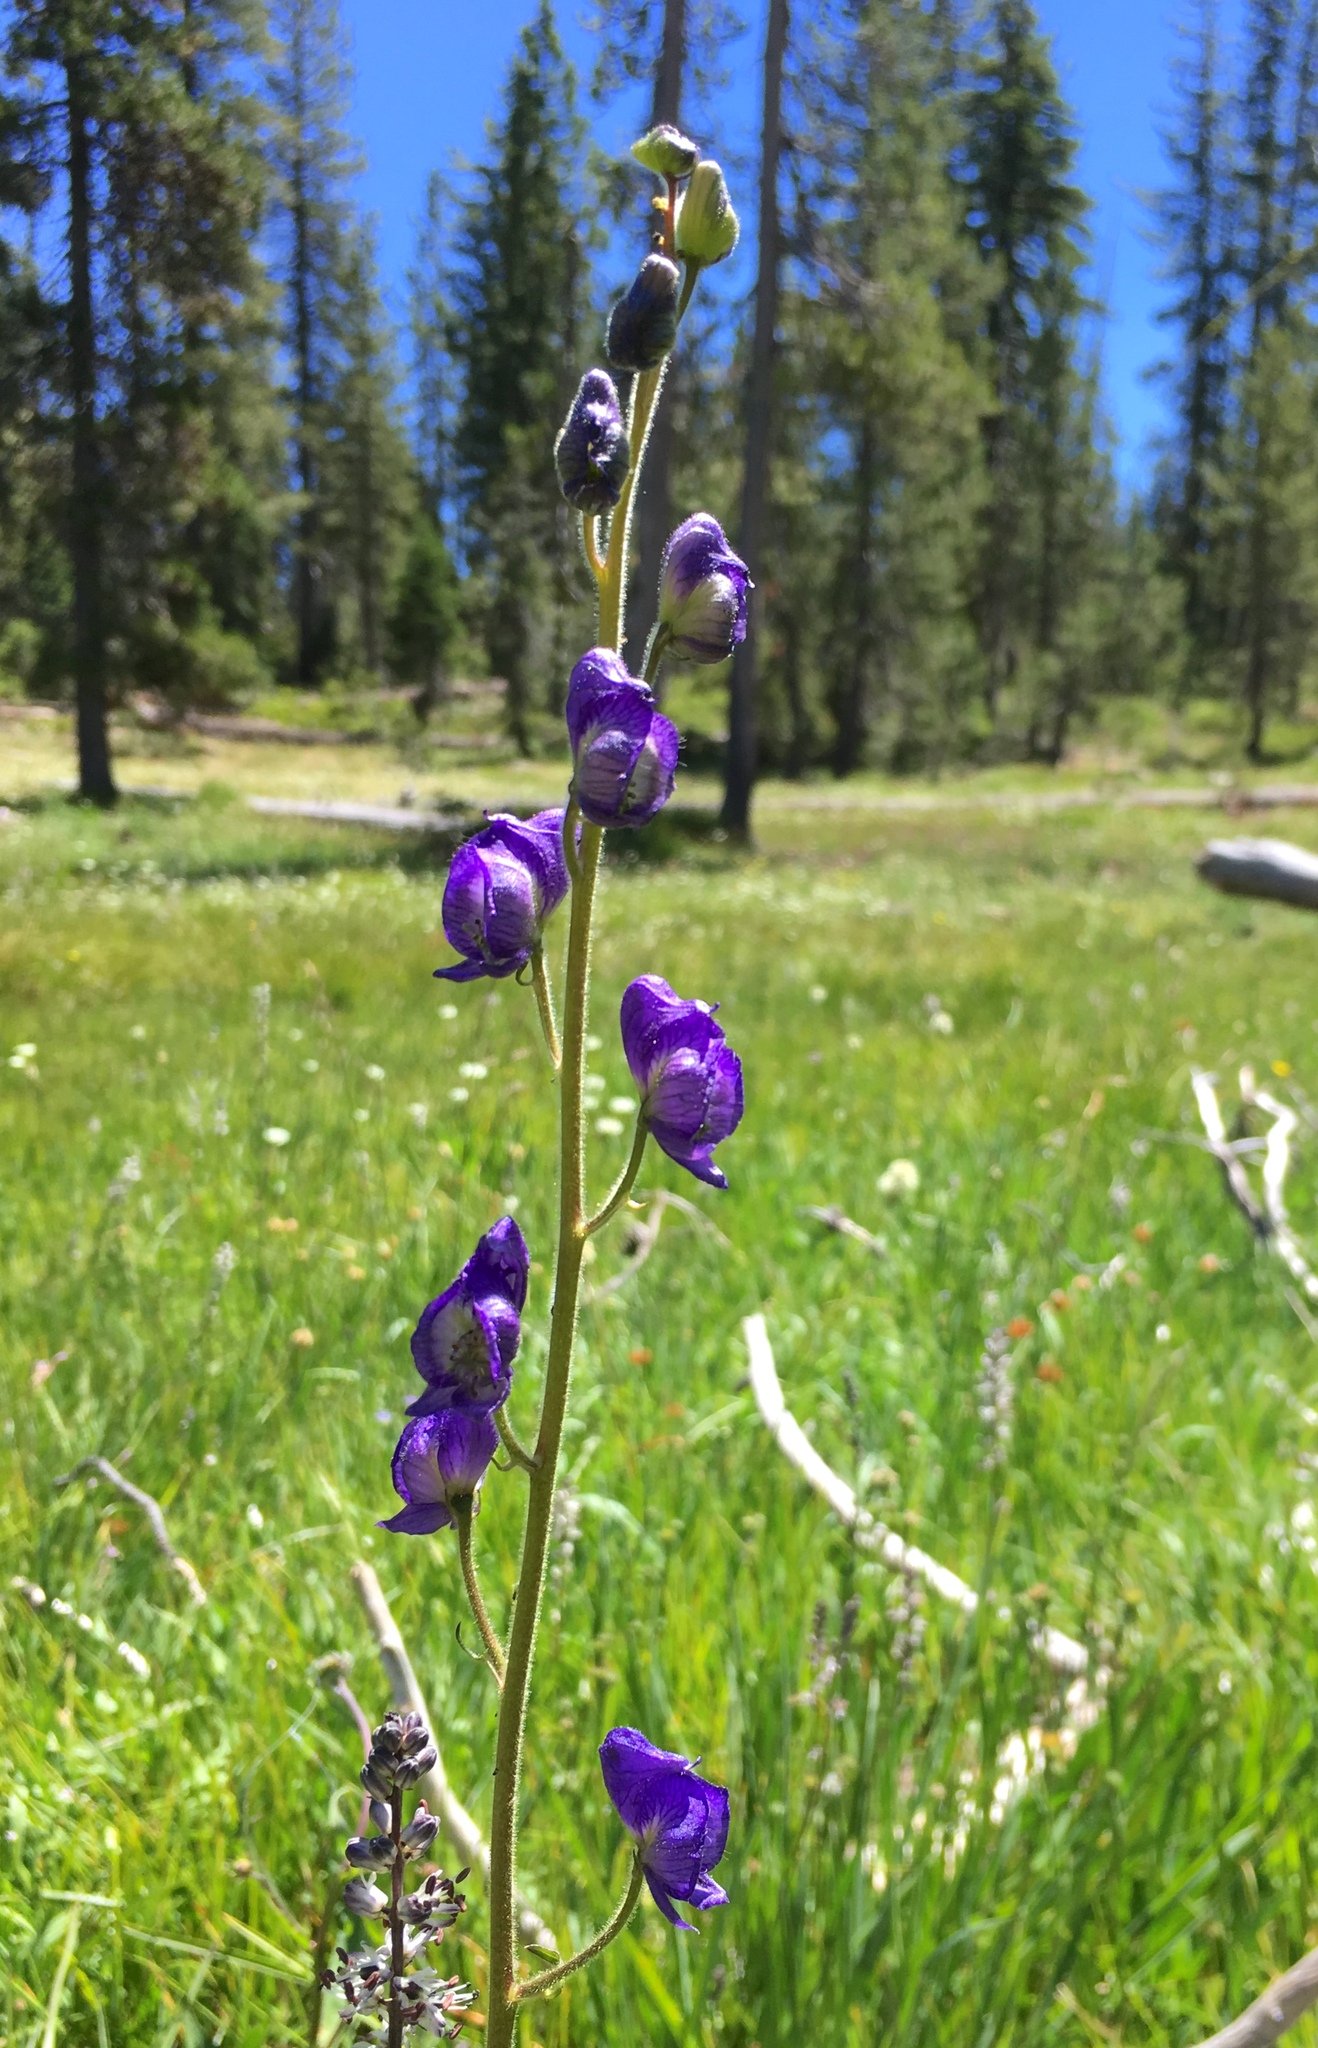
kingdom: Plantae
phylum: Tracheophyta
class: Magnoliopsida
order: Ranunculales
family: Ranunculaceae
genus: Aconitum
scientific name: Aconitum columbianum
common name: Columbia aconite
